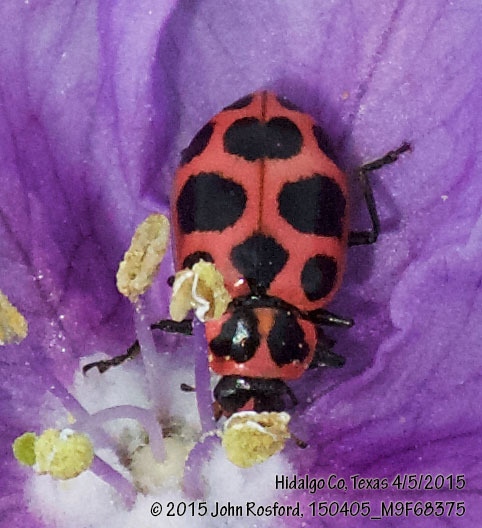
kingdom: Animalia
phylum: Arthropoda
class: Insecta
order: Coleoptera
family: Coccinellidae
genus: Coleomegilla
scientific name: Coleomegilla maculata
